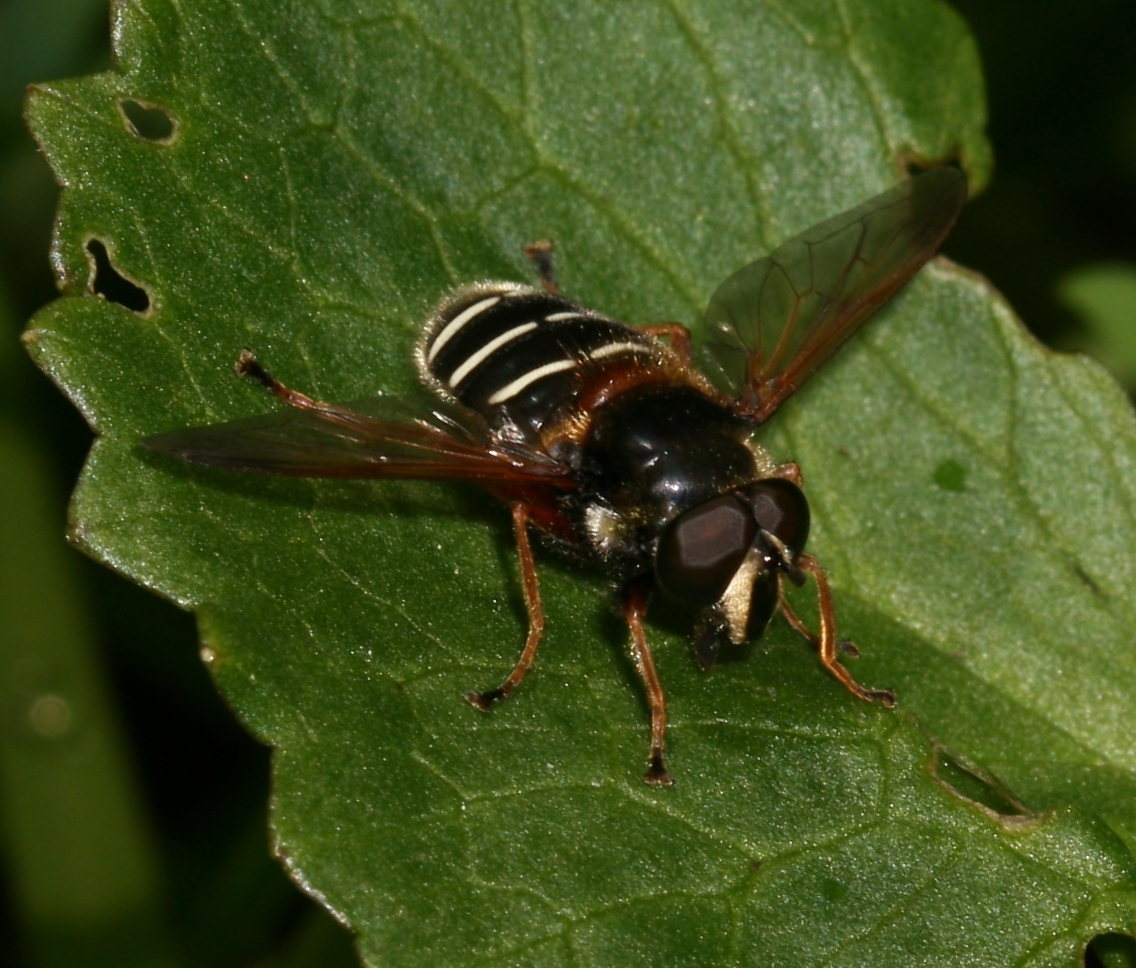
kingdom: Animalia
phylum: Arthropoda
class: Insecta
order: Diptera
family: Syrphidae
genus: Sericomyia
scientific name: Sericomyia lappona
